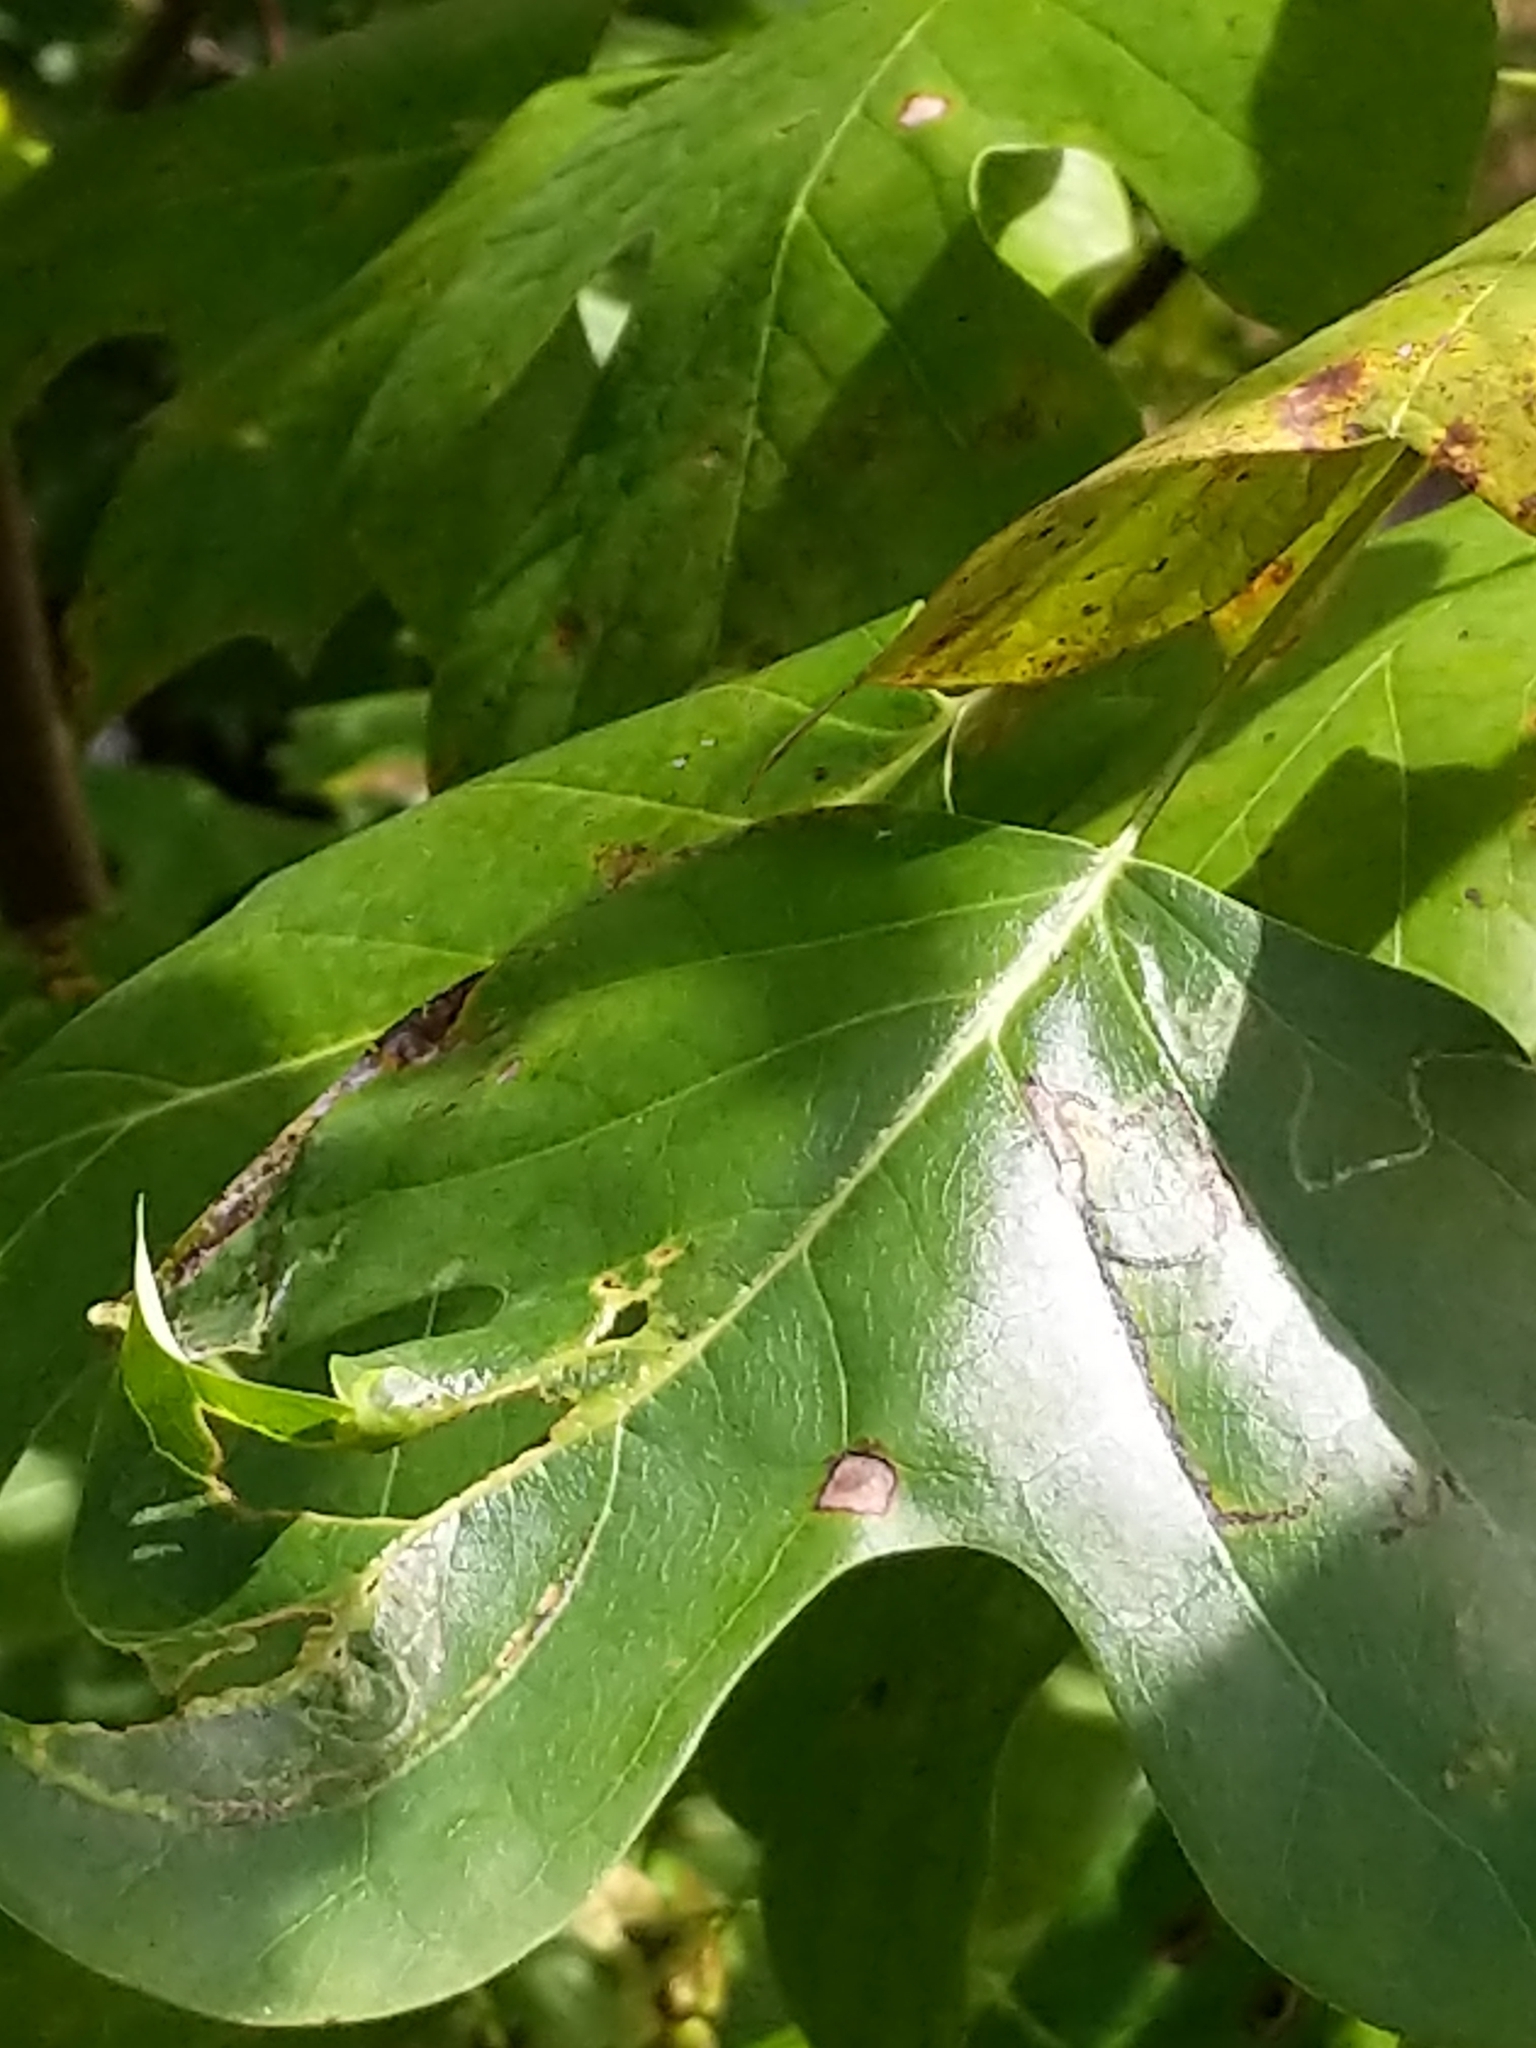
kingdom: Plantae
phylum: Tracheophyta
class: Magnoliopsida
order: Magnoliales
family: Magnoliaceae
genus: Liriodendron
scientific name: Liriodendron tulipifera
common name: Tulip tree
